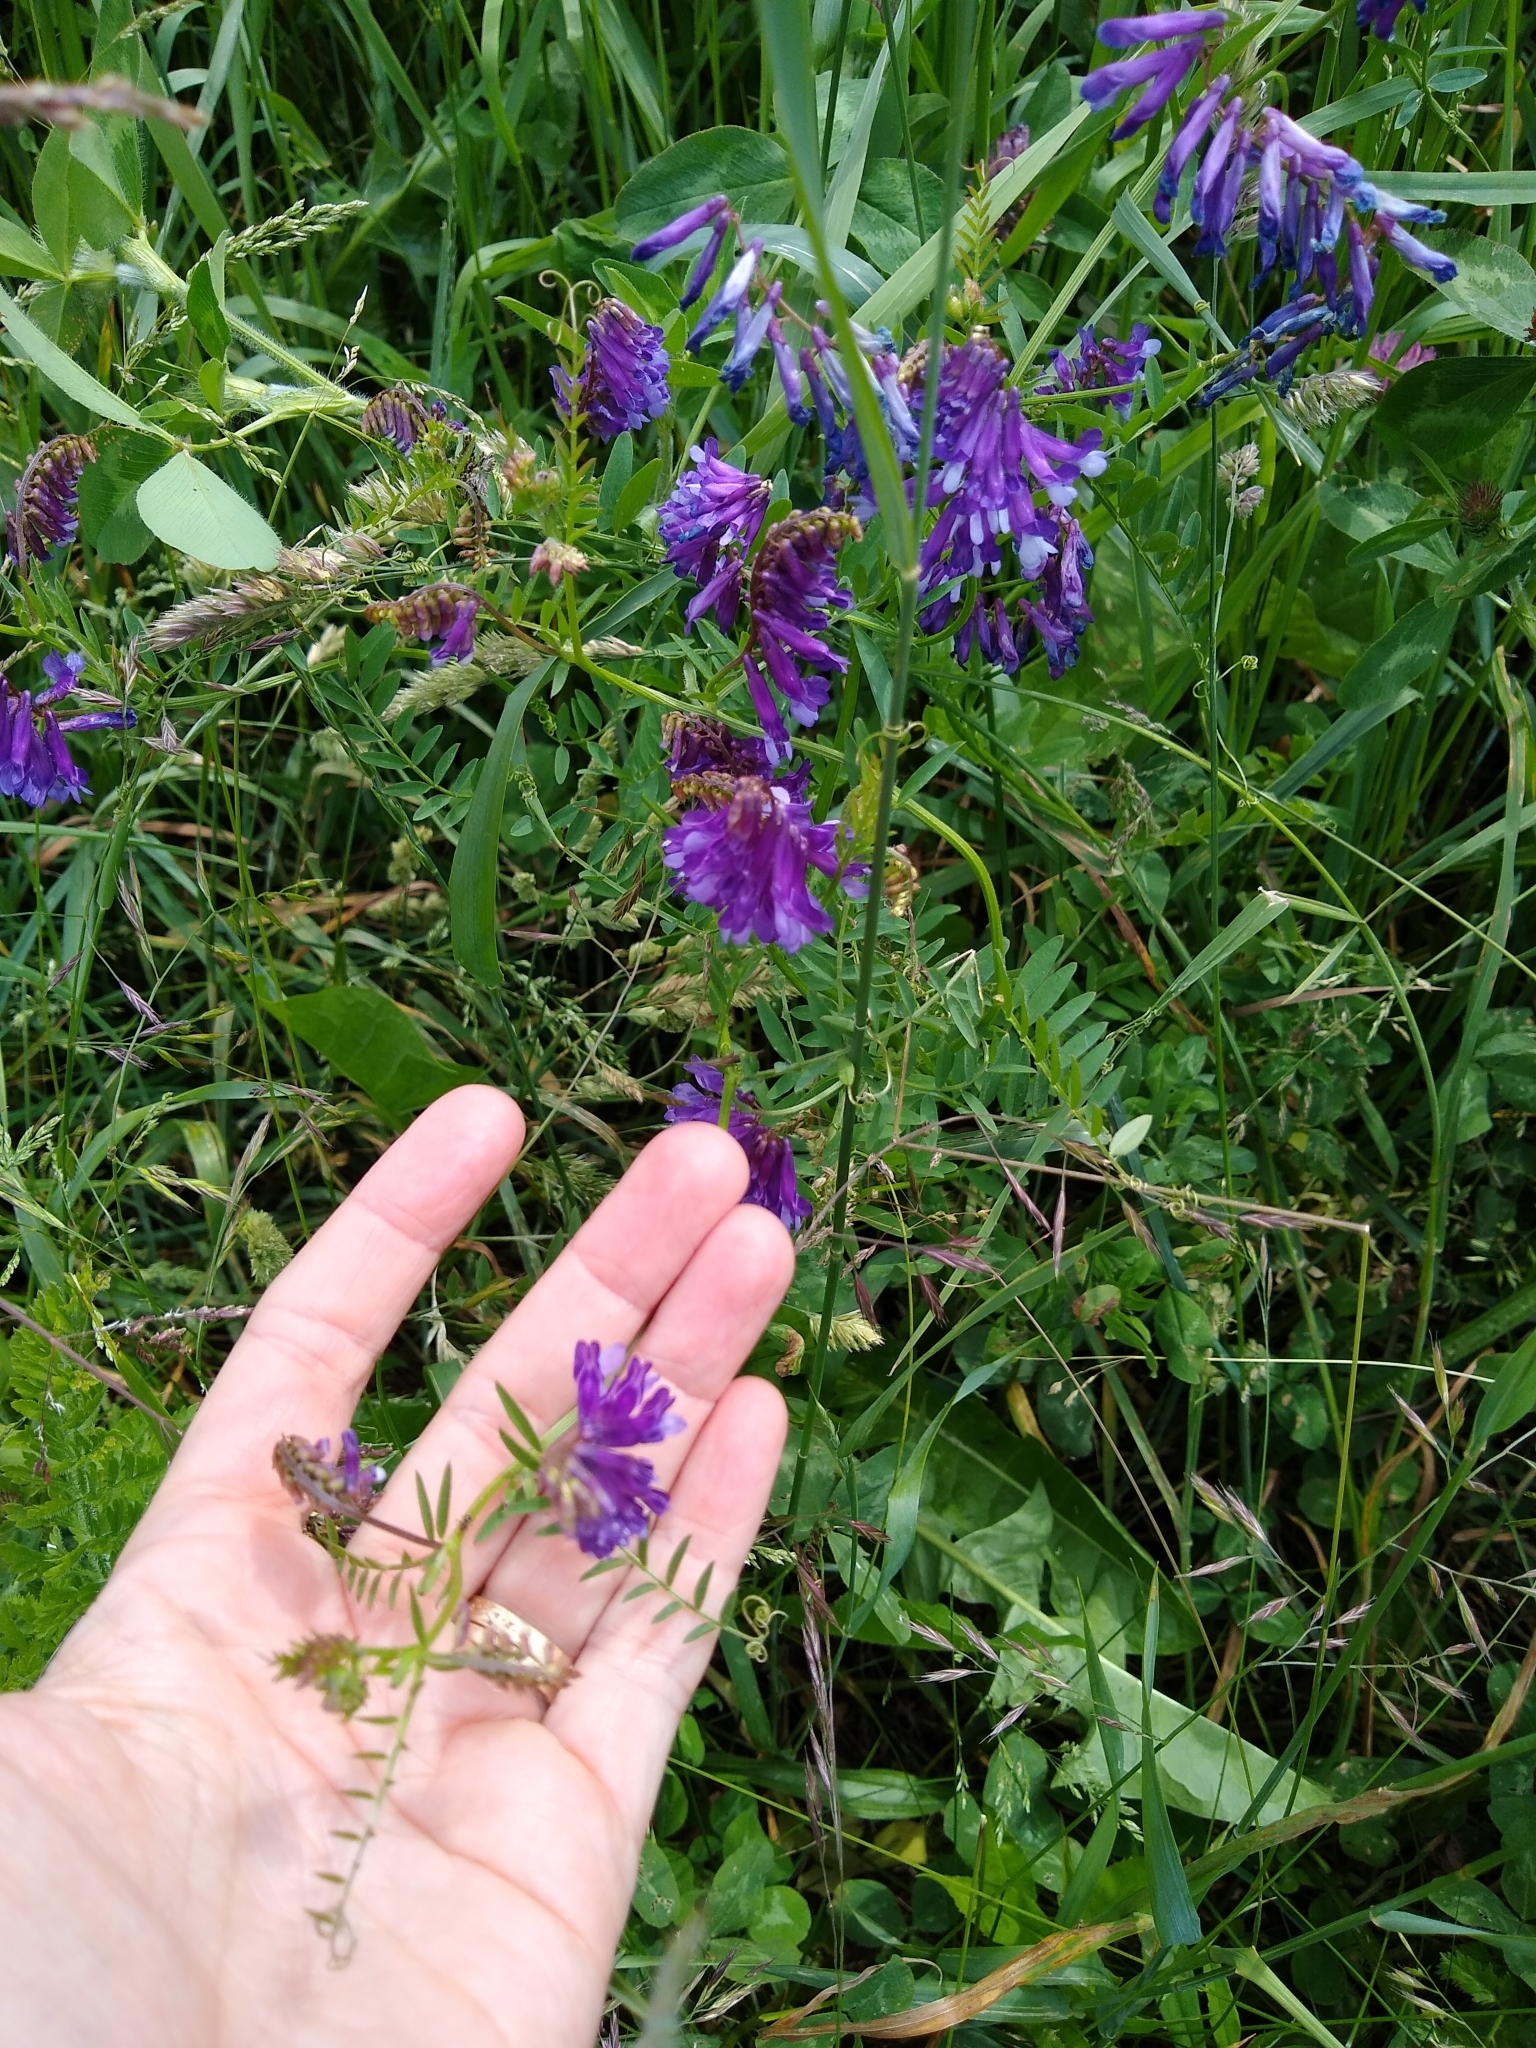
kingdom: Plantae
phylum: Tracheophyta
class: Magnoliopsida
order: Fabales
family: Fabaceae
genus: Vicia
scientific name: Vicia villosa
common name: Fodder vetch
